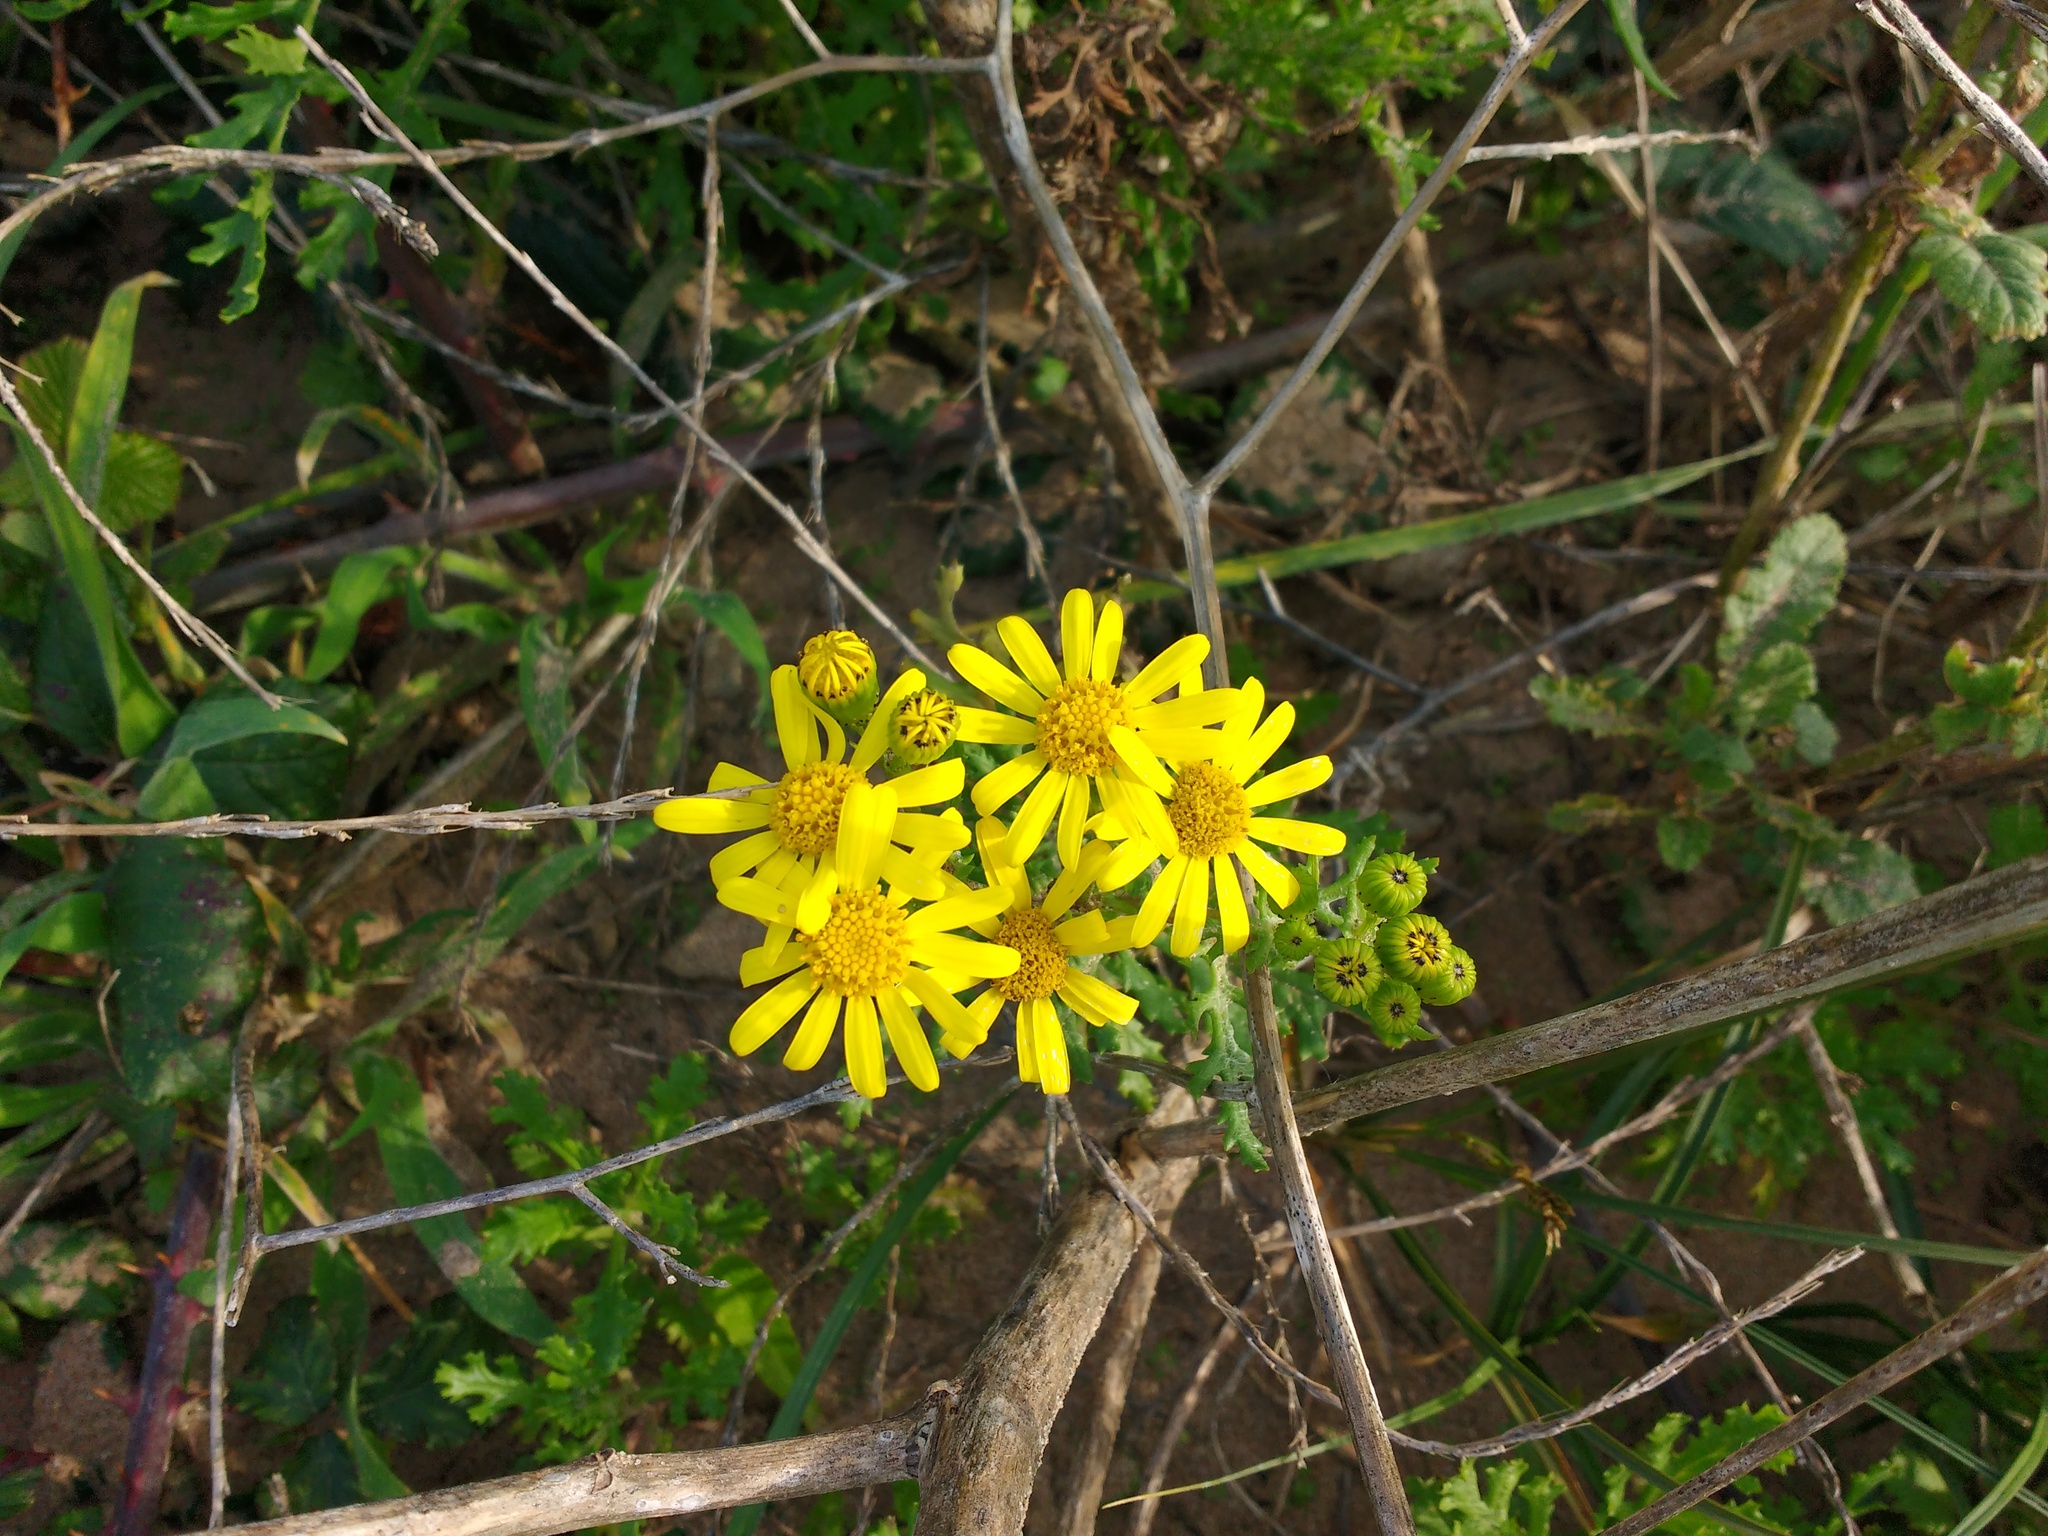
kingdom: Plantae
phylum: Tracheophyta
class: Magnoliopsida
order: Asterales
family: Asteraceae
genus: Jacobaea
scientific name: Jacobaea vulgaris
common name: Stinking willie
